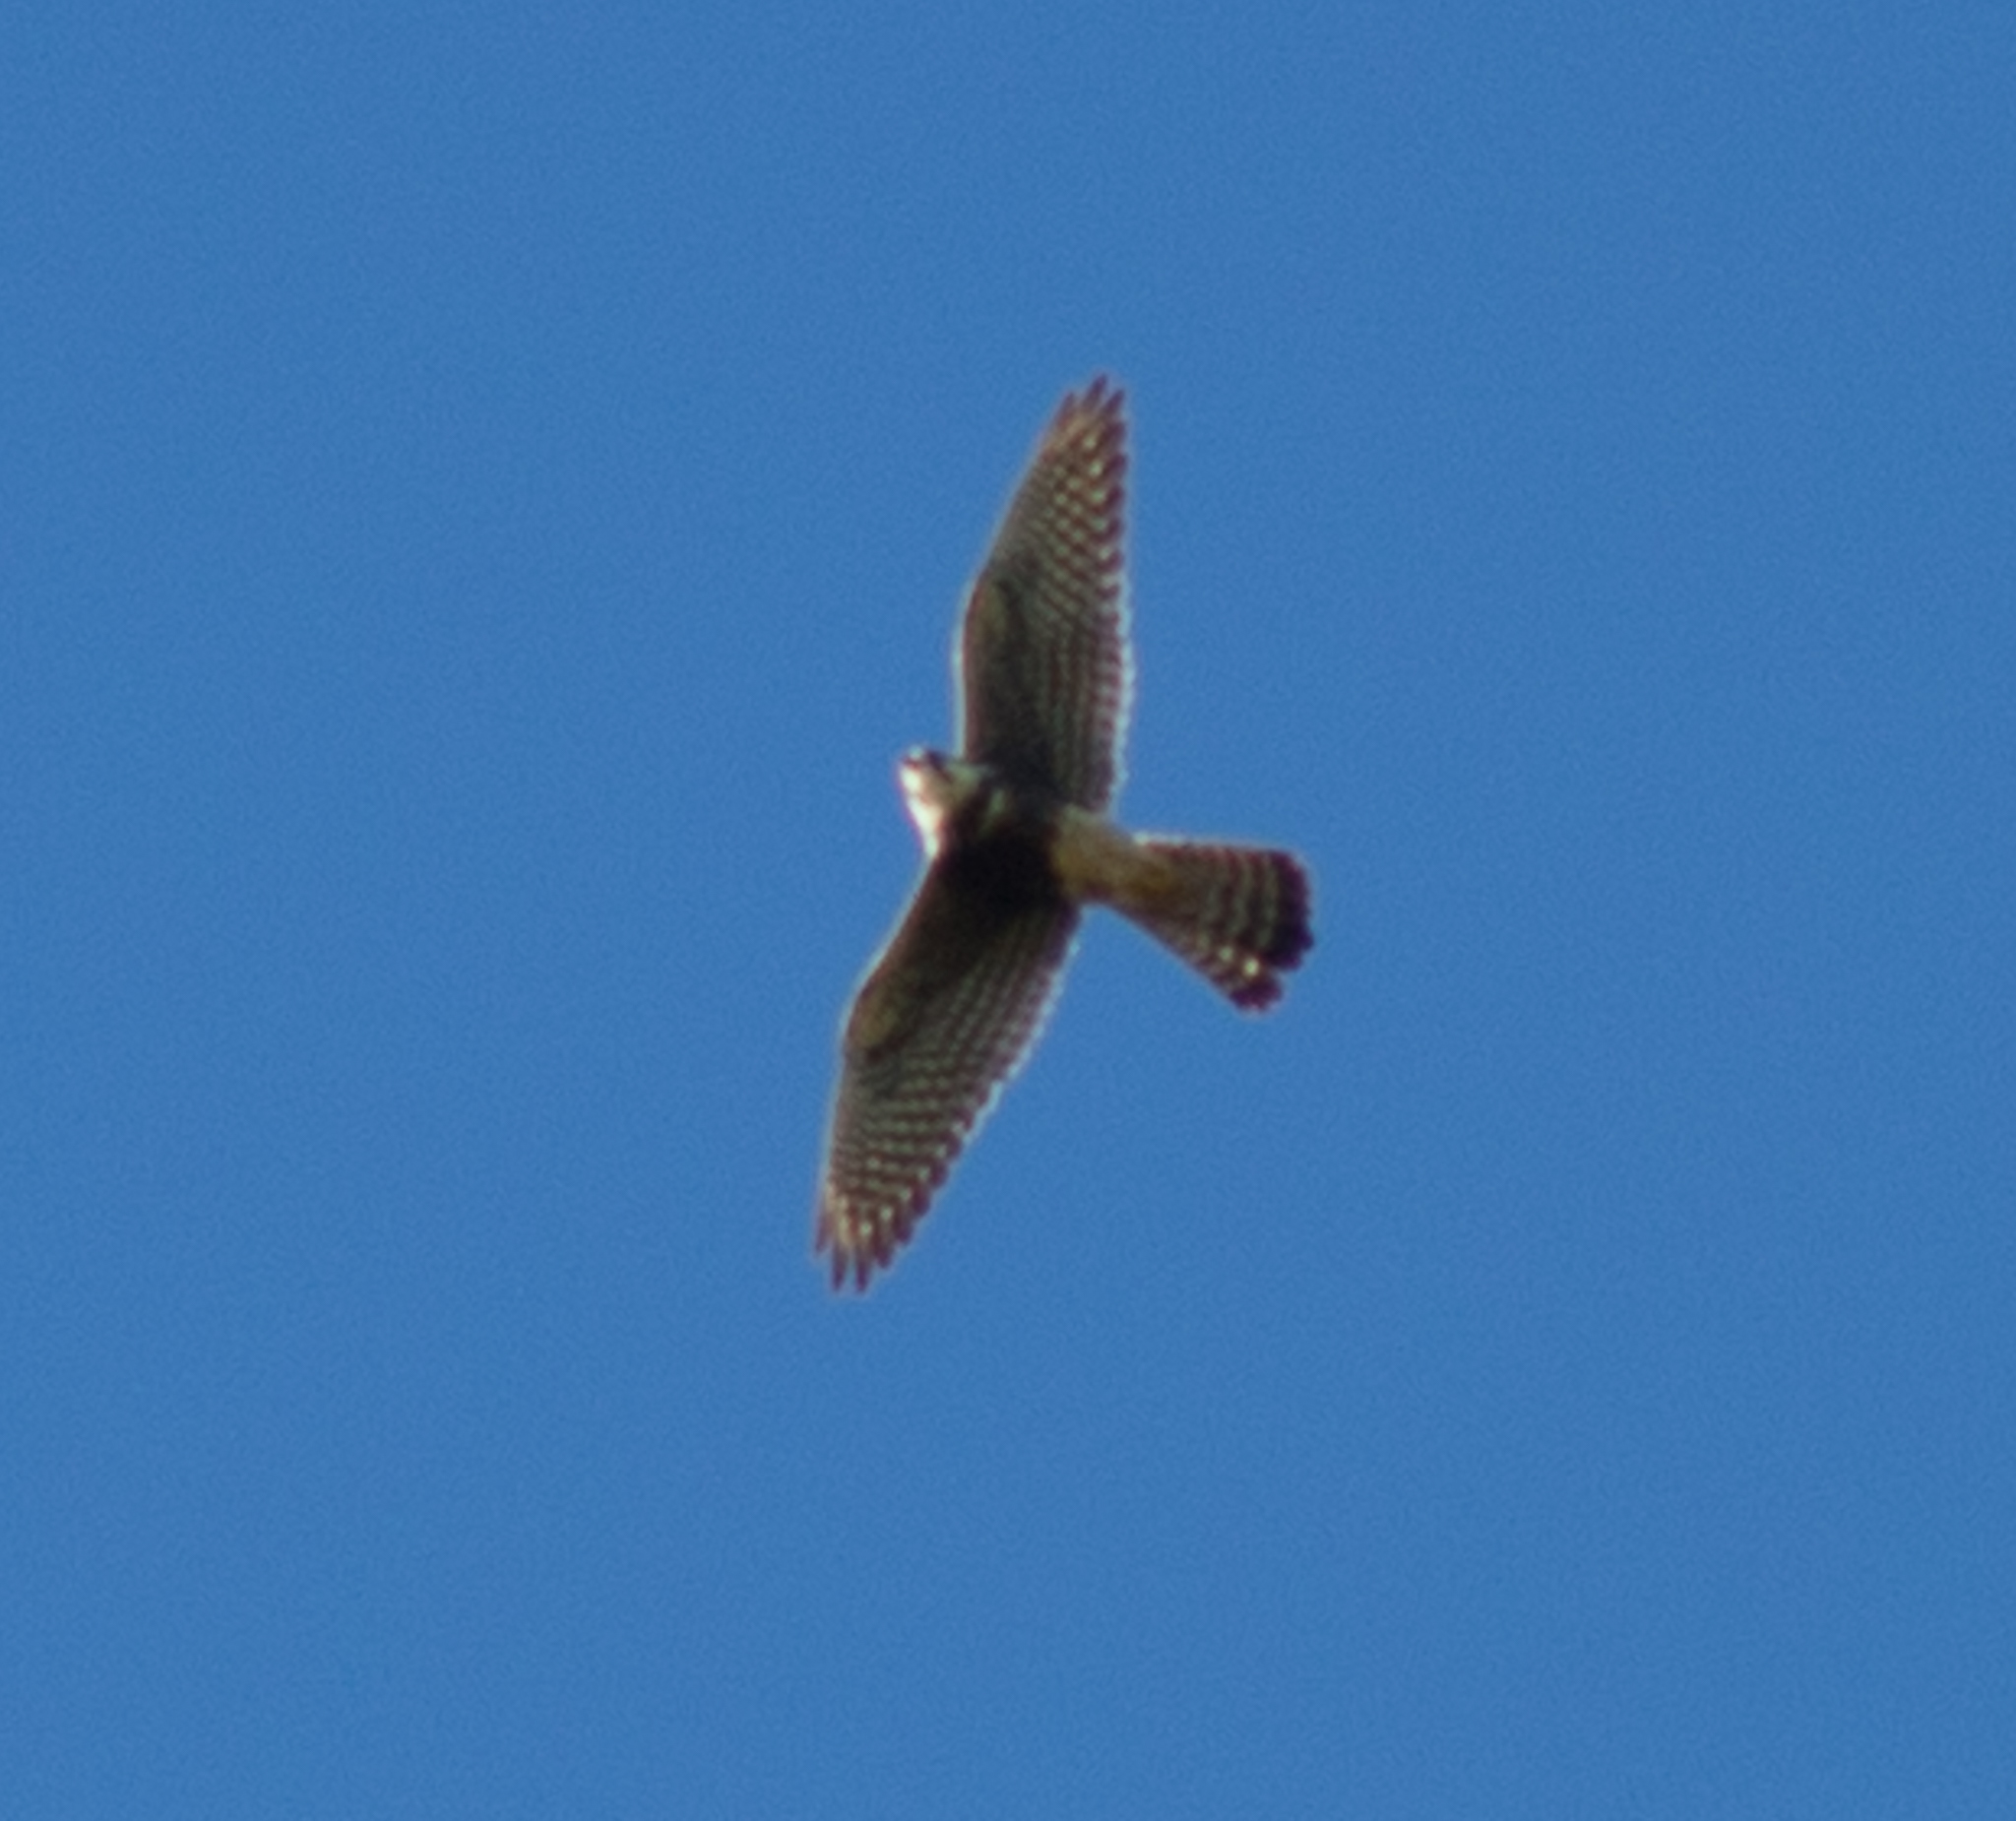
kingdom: Animalia
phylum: Chordata
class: Aves
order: Falconiformes
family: Falconidae
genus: Falco
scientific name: Falco femoralis
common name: Aplomado falcon
